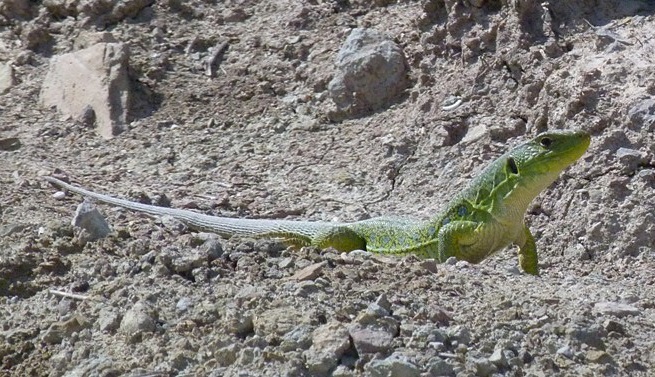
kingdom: Animalia
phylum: Chordata
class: Squamata
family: Lacertidae
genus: Timon
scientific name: Timon lepidus
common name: Ocellated lizard
